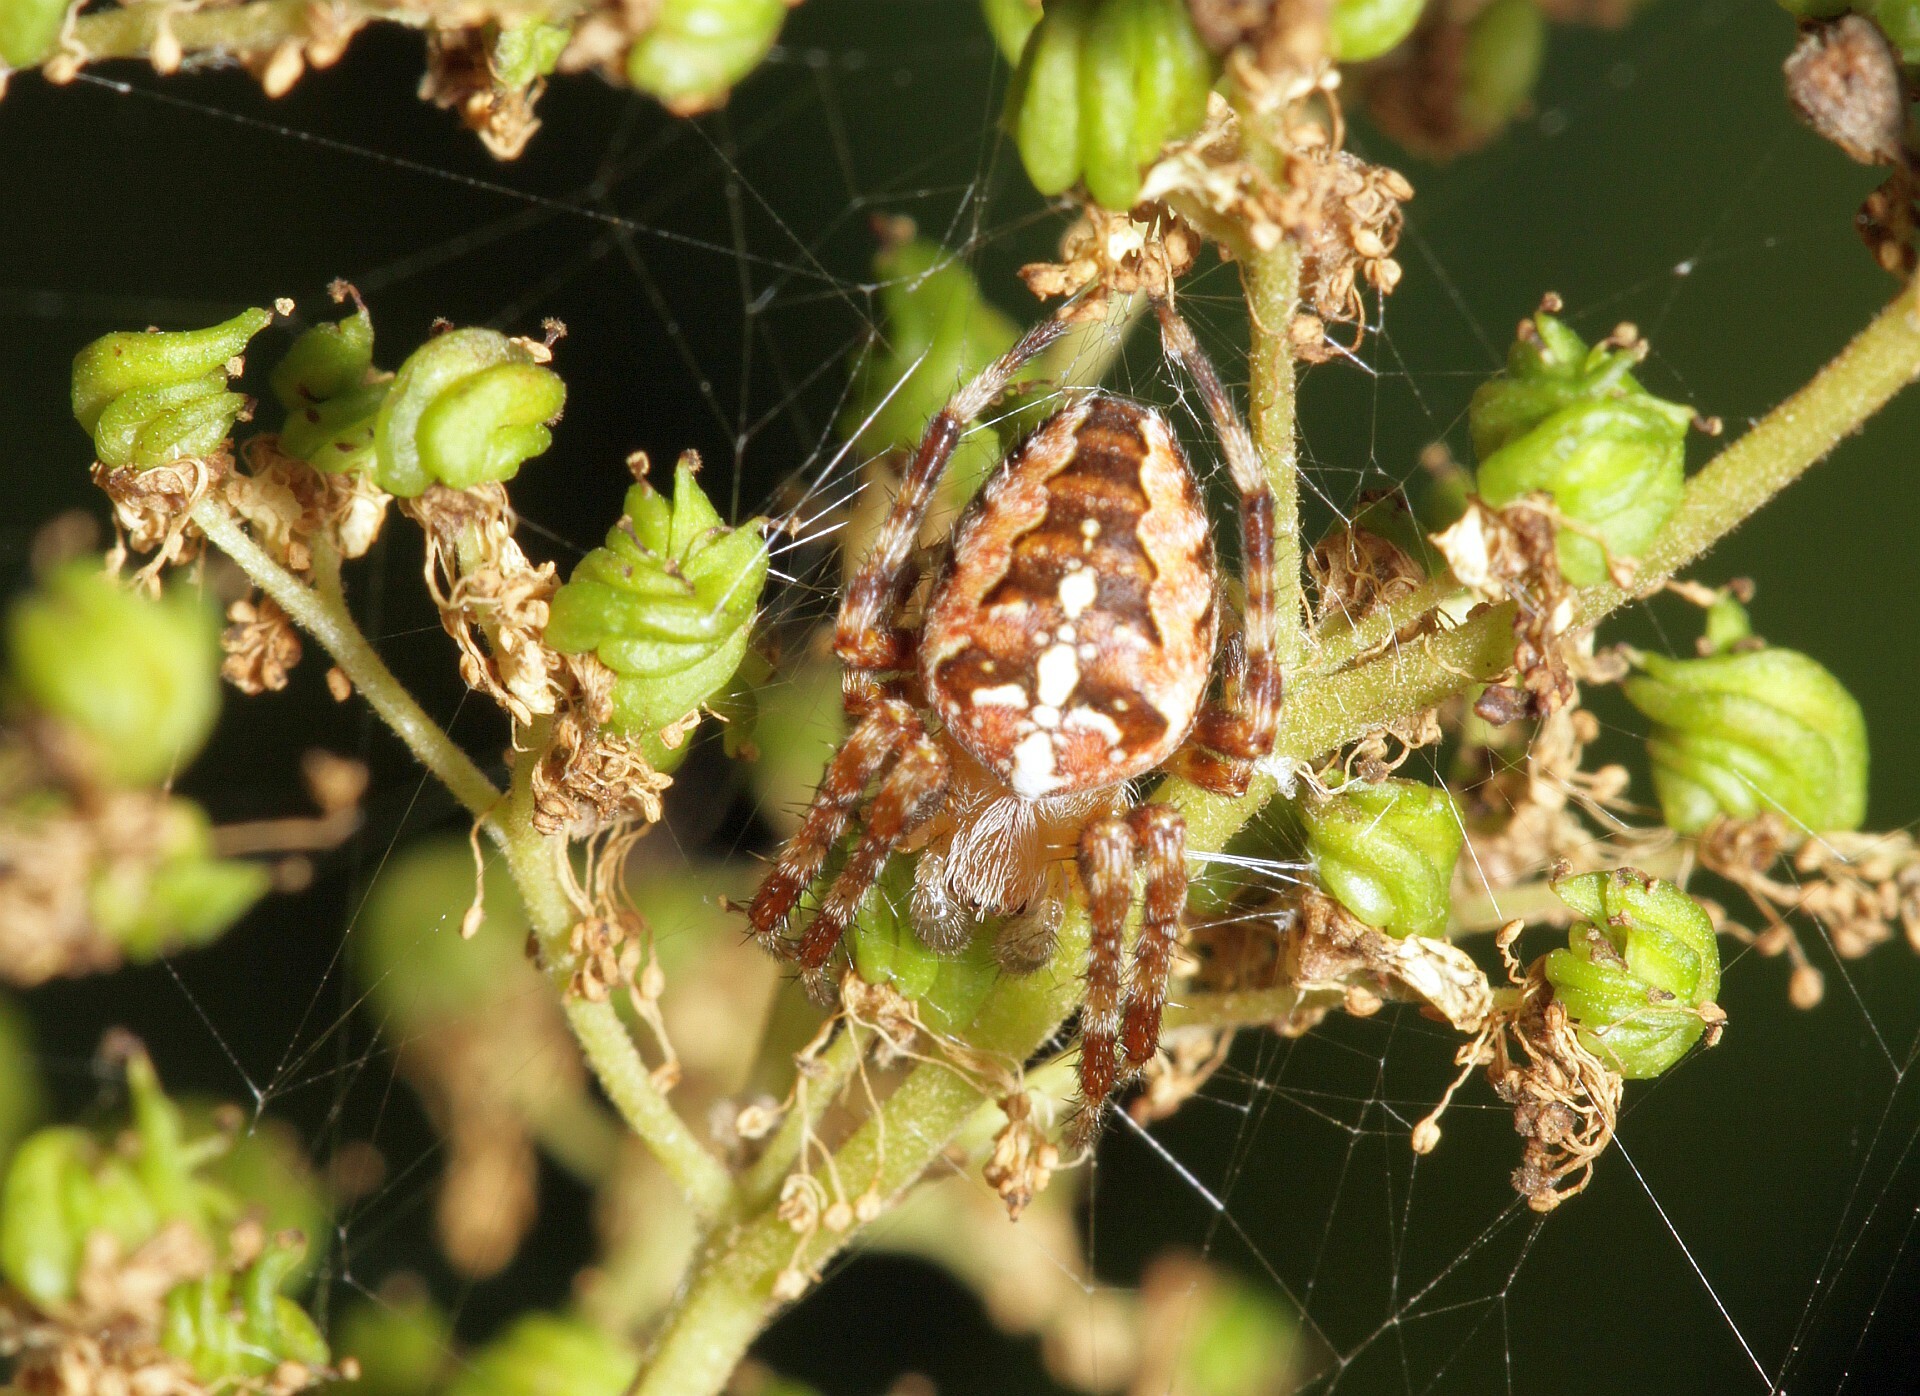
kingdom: Animalia
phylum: Arthropoda
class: Arachnida
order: Araneae
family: Araneidae
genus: Araneus
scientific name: Araneus diadematus
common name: Cross orbweaver
